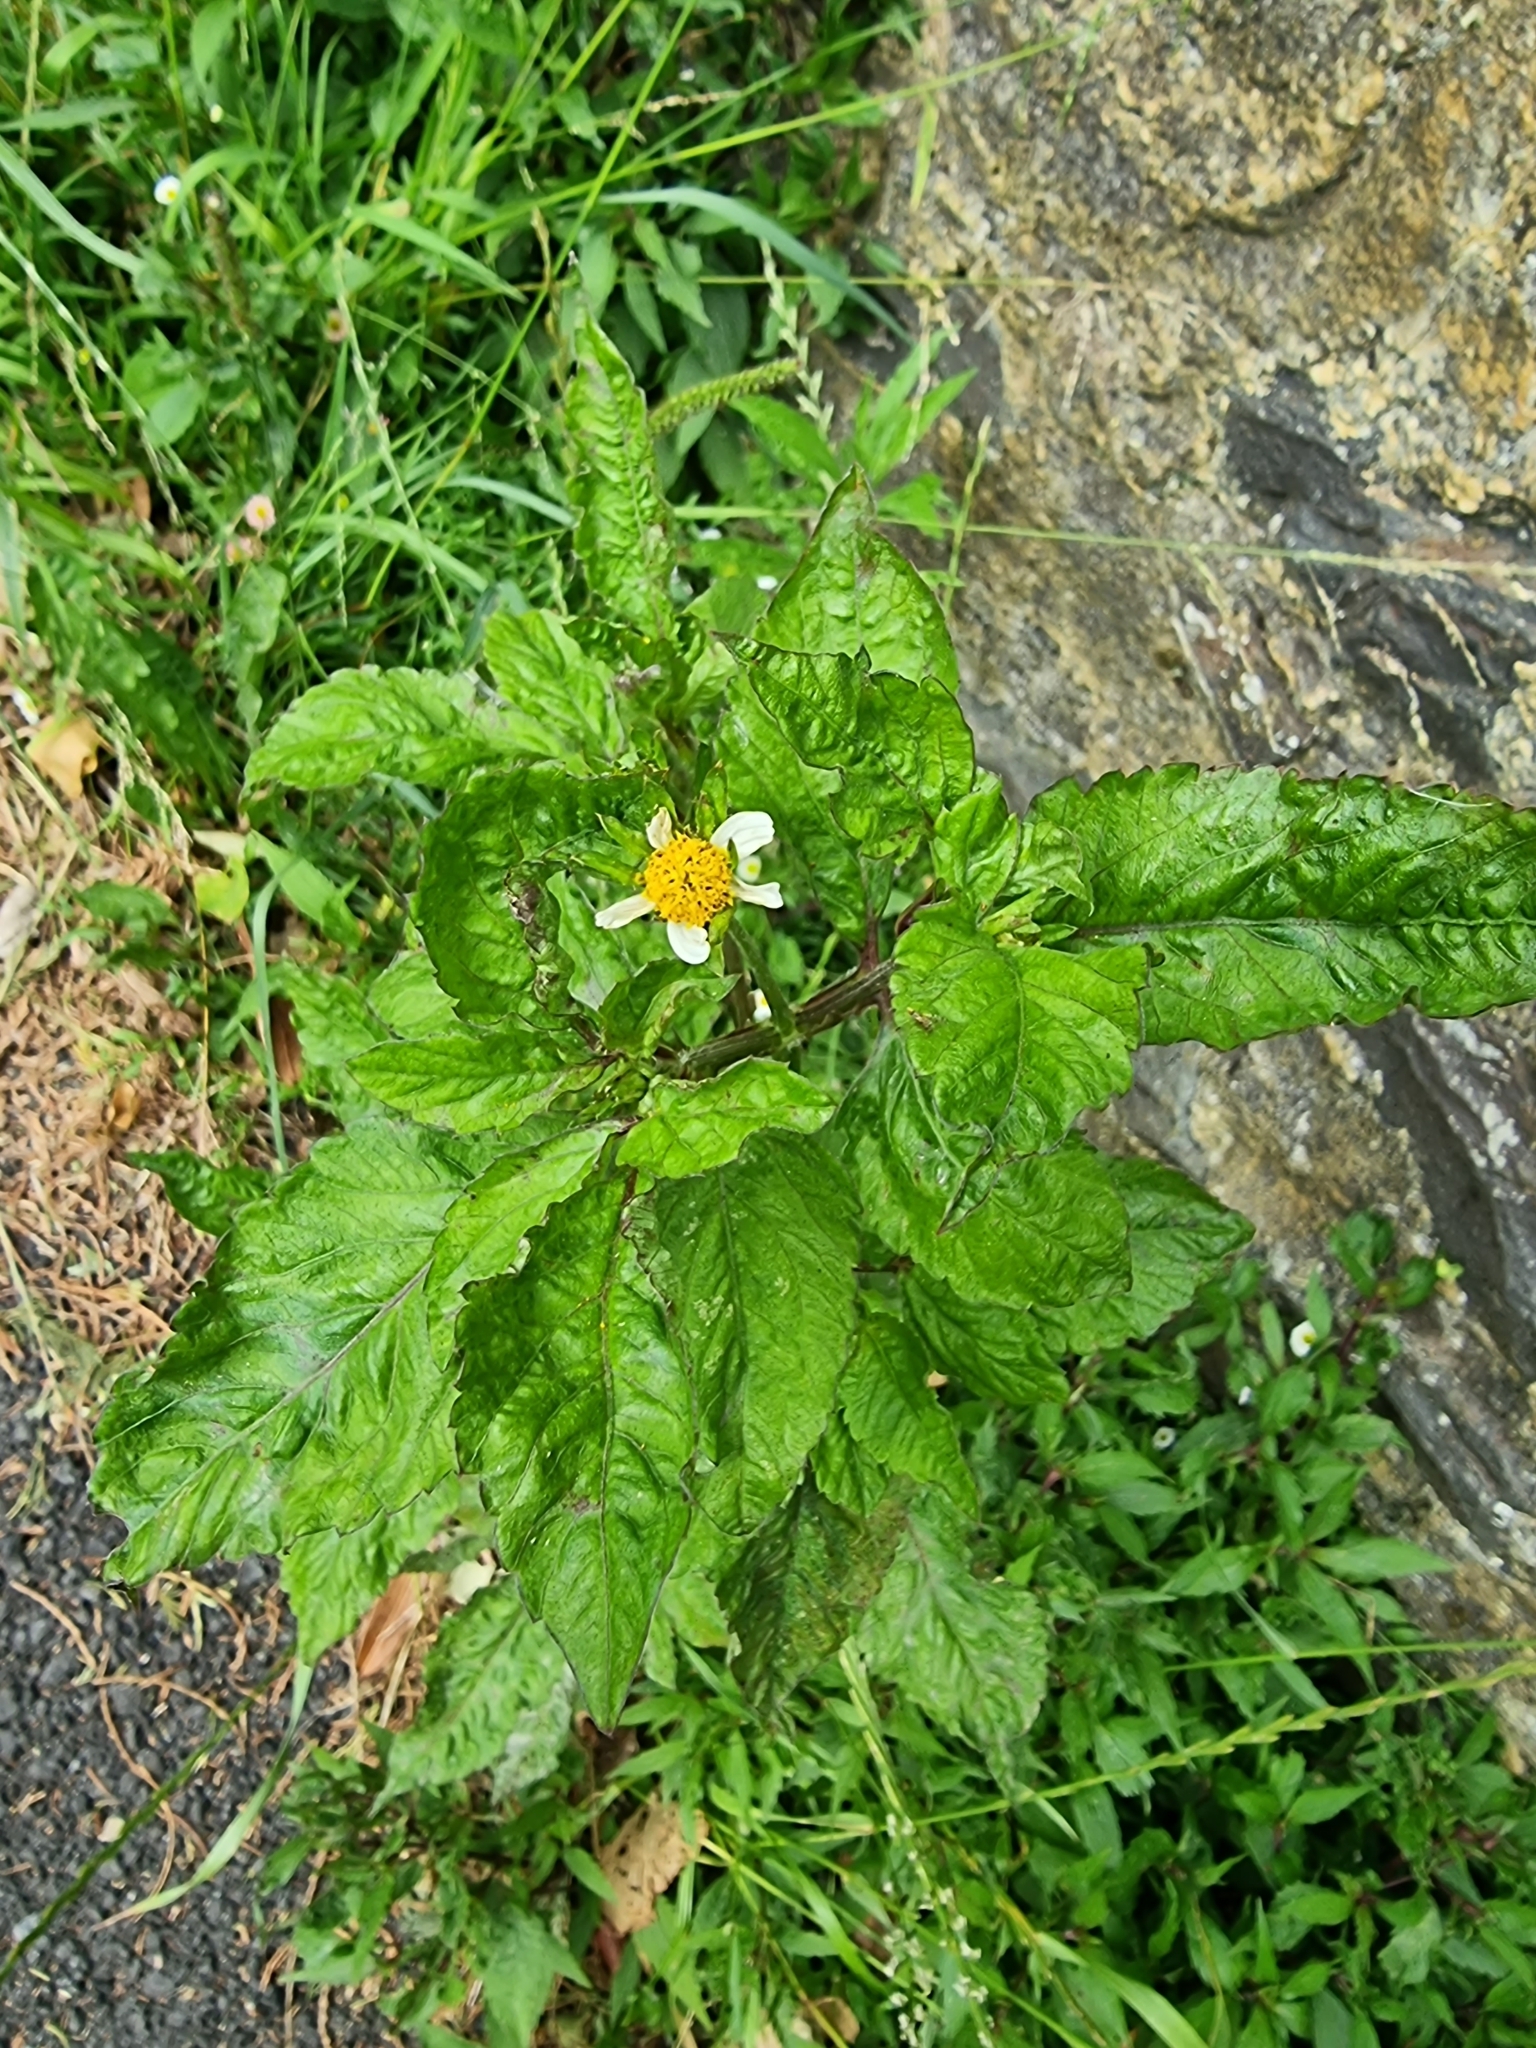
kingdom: Plantae
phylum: Tracheophyta
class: Magnoliopsida
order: Asterales
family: Asteraceae
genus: Bidens
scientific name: Bidens pilosa
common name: Black-jack
